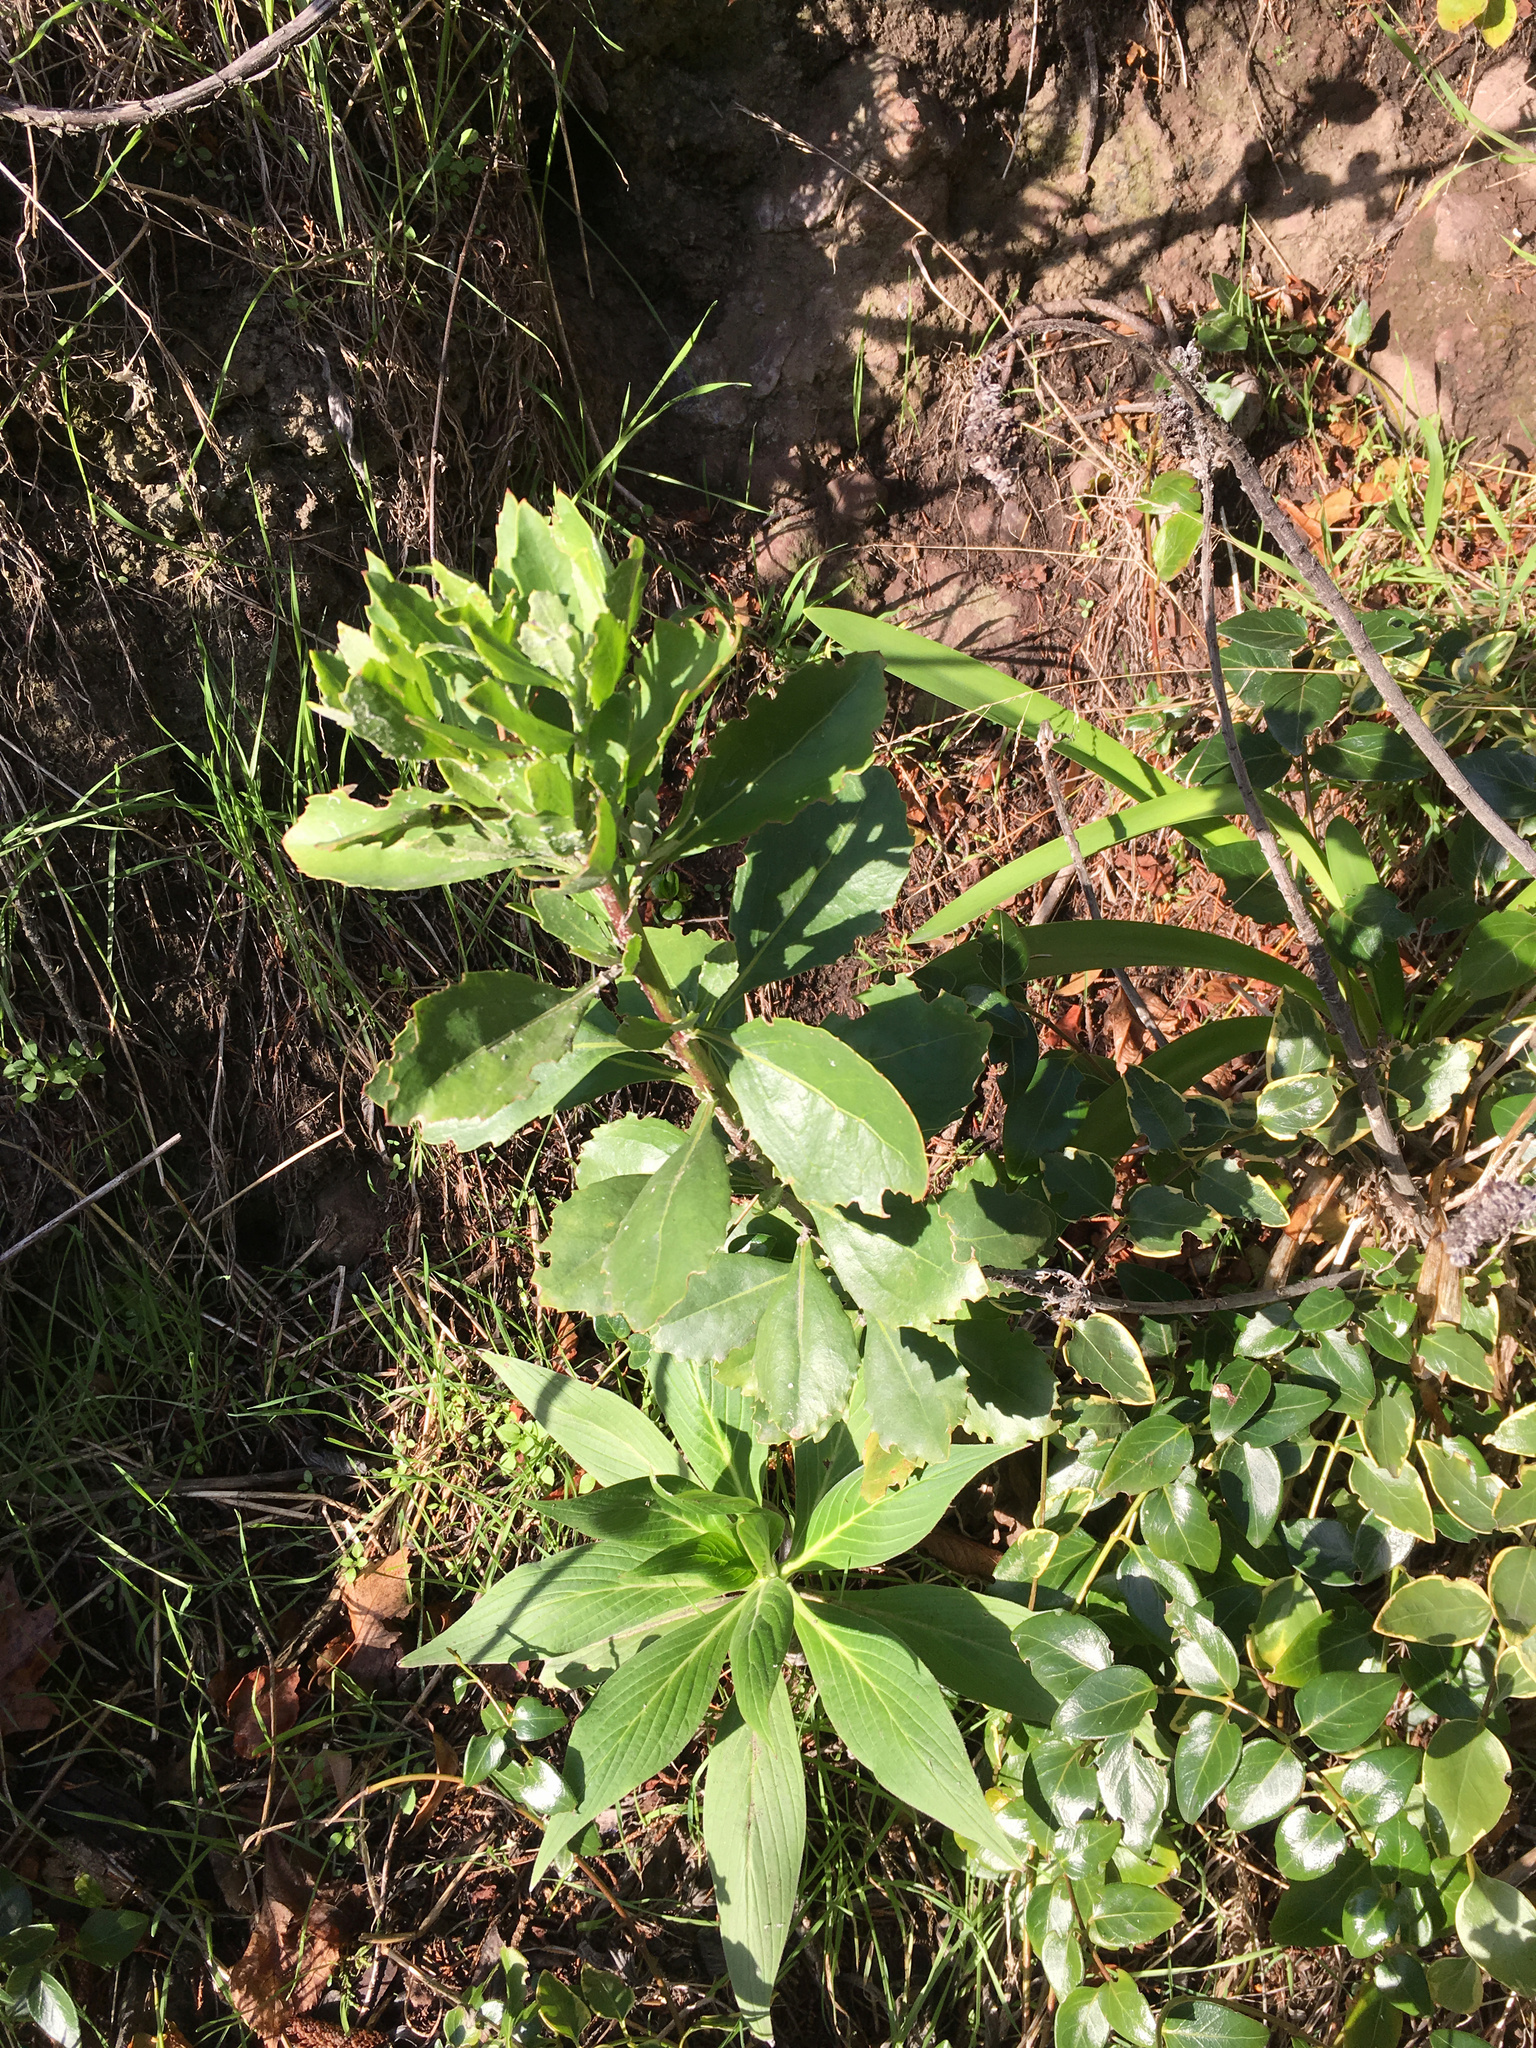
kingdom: Plantae
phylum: Tracheophyta
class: Magnoliopsida
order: Asterales
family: Asteraceae
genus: Osteospermum
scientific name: Osteospermum moniliferum
